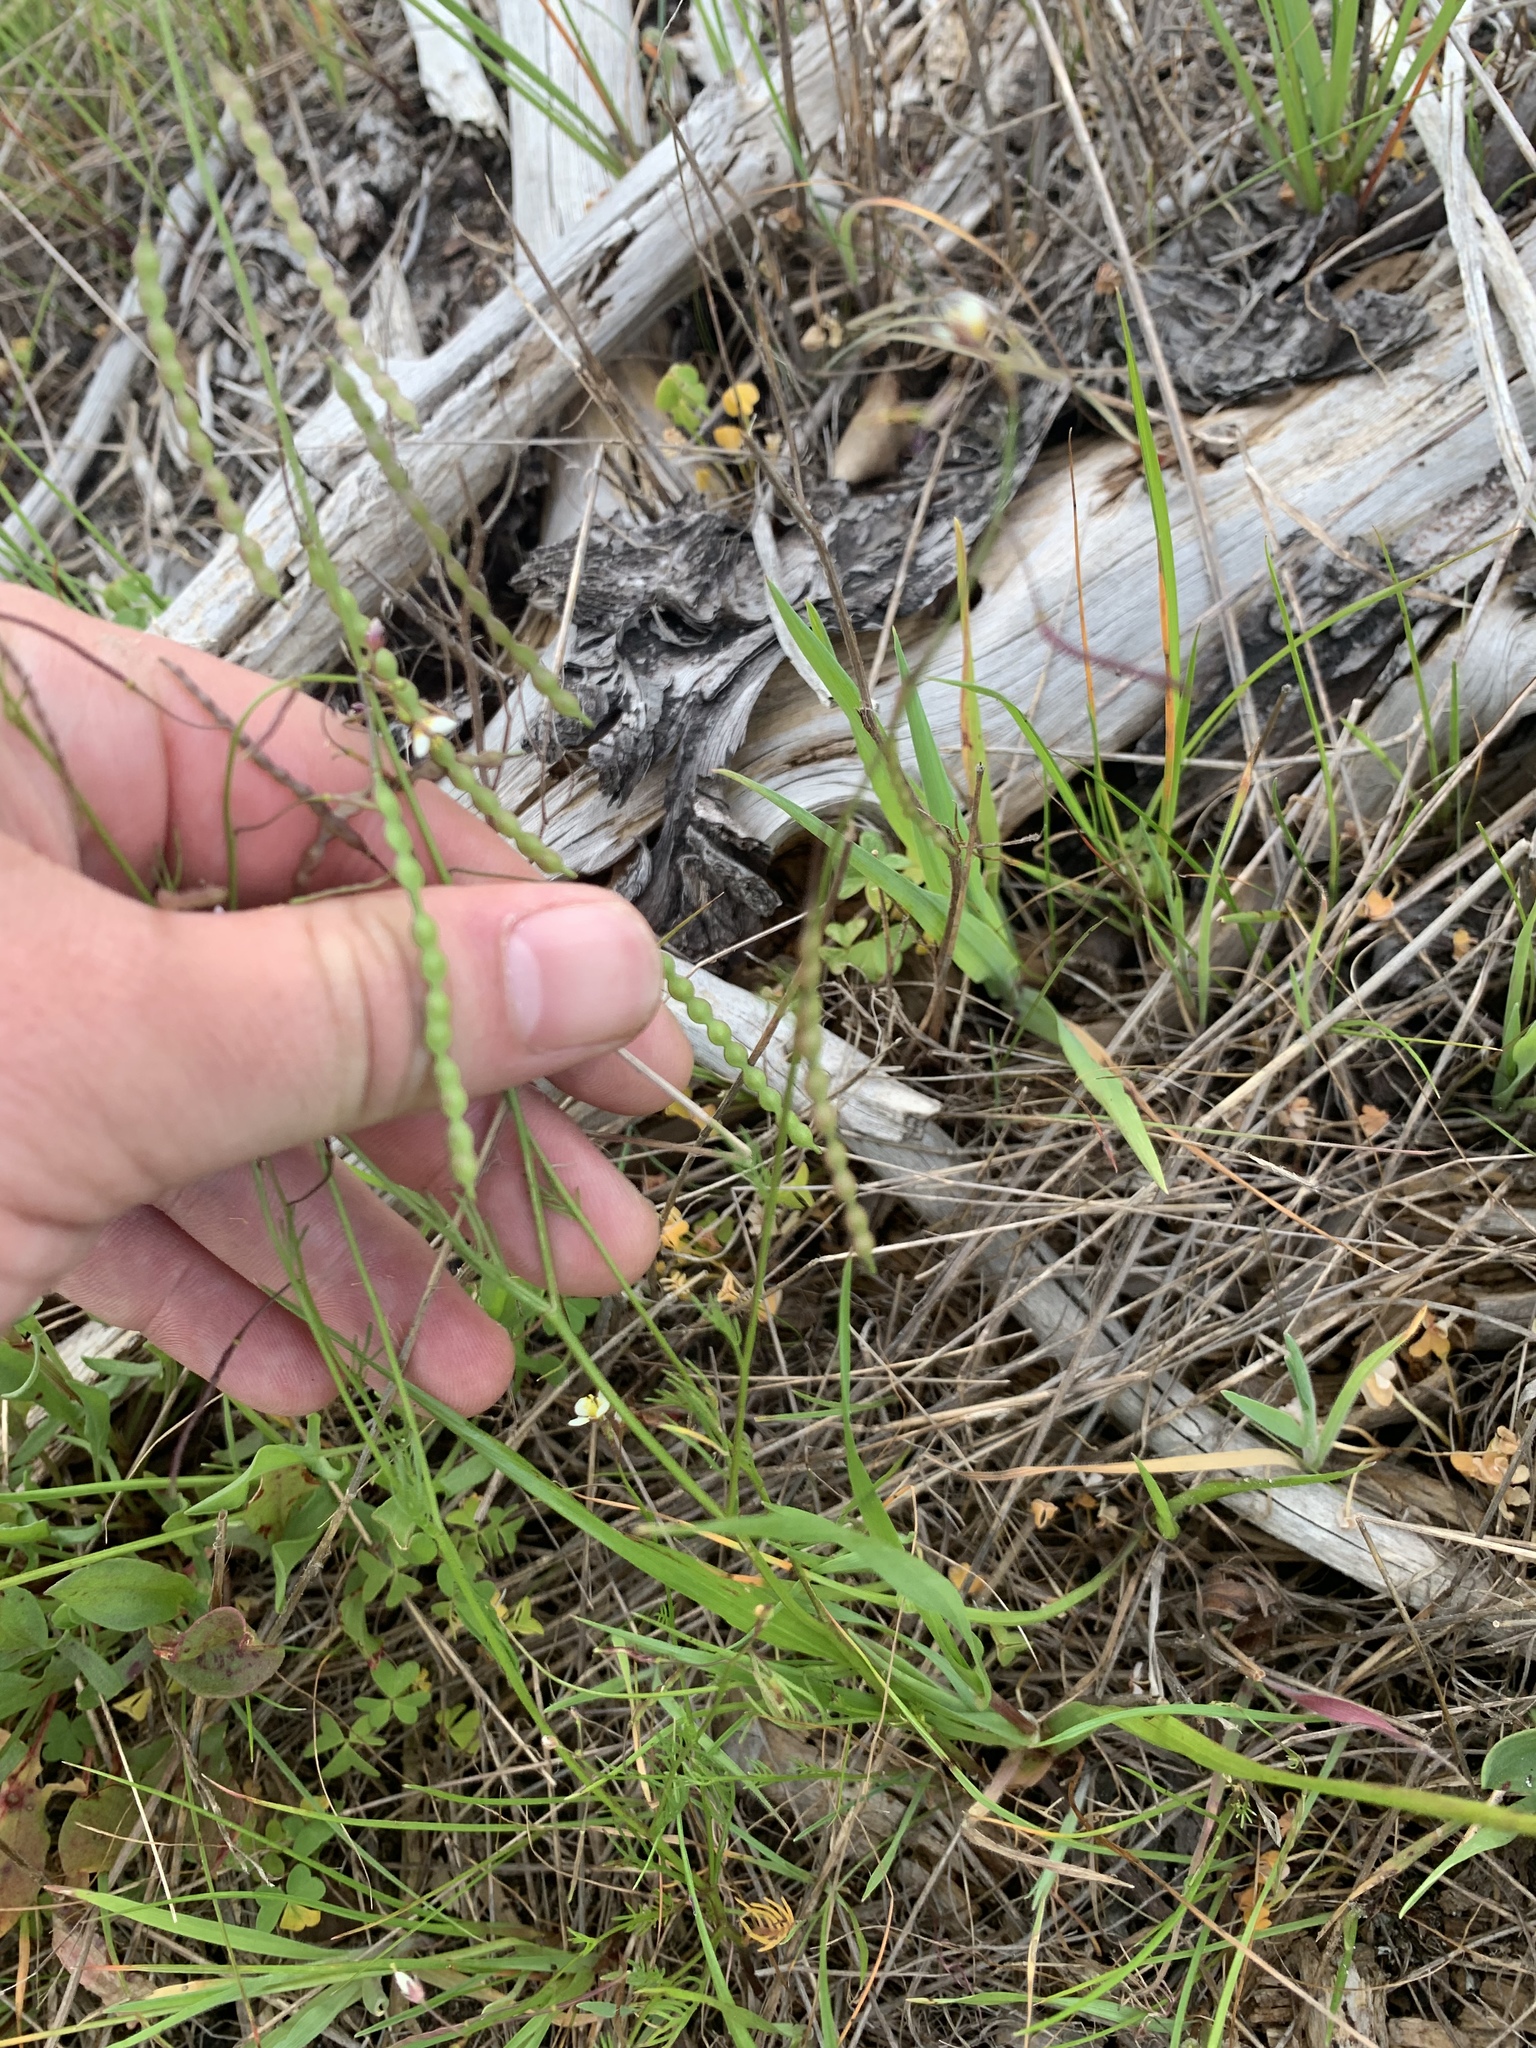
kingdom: Plantae
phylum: Tracheophyta
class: Magnoliopsida
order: Brassicales
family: Brassicaceae
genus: Heliophila
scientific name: Heliophila pendula
